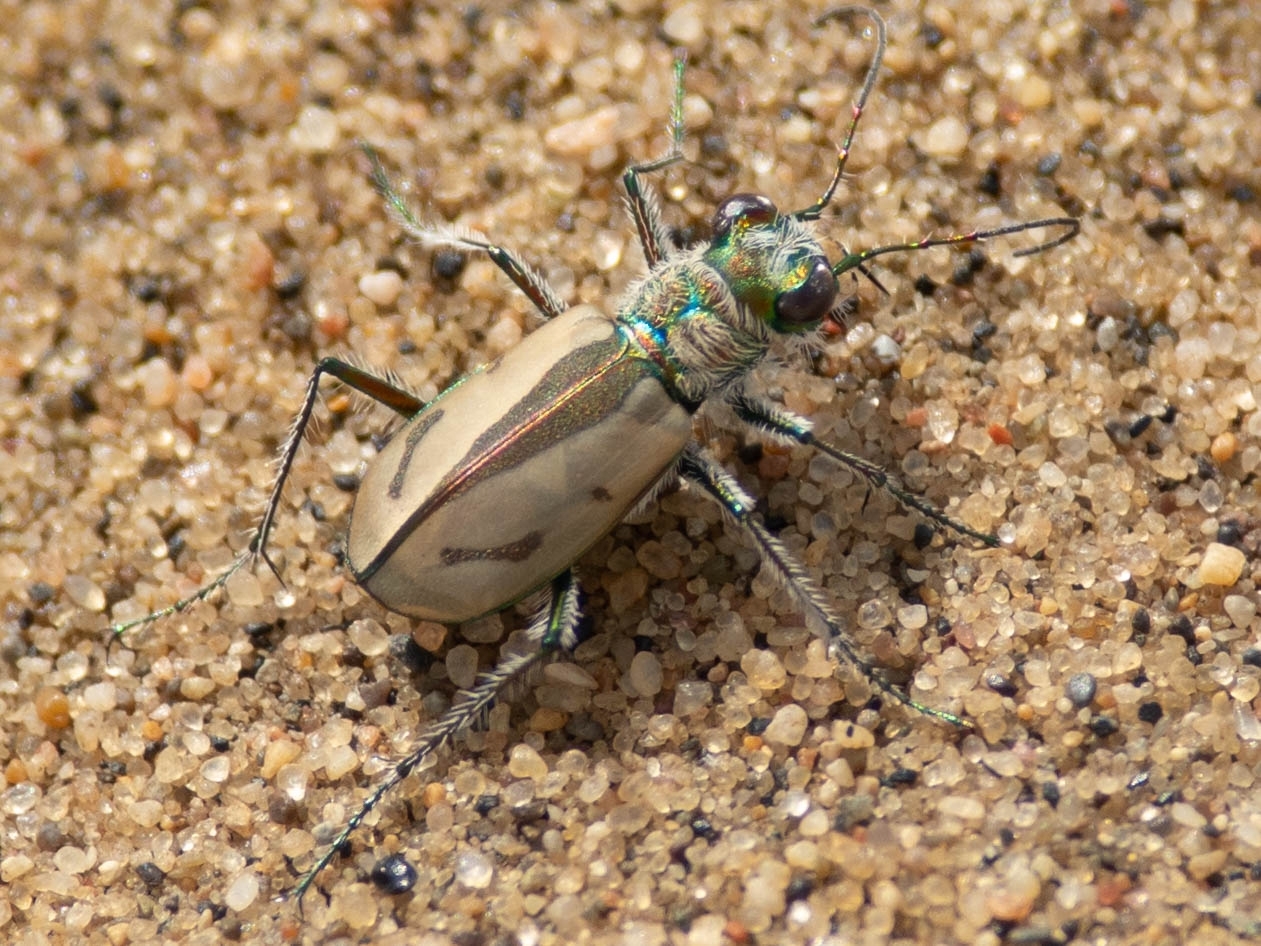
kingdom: Animalia
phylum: Arthropoda
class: Insecta
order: Coleoptera
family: Carabidae
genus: Cicindela
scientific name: Cicindela limbata
